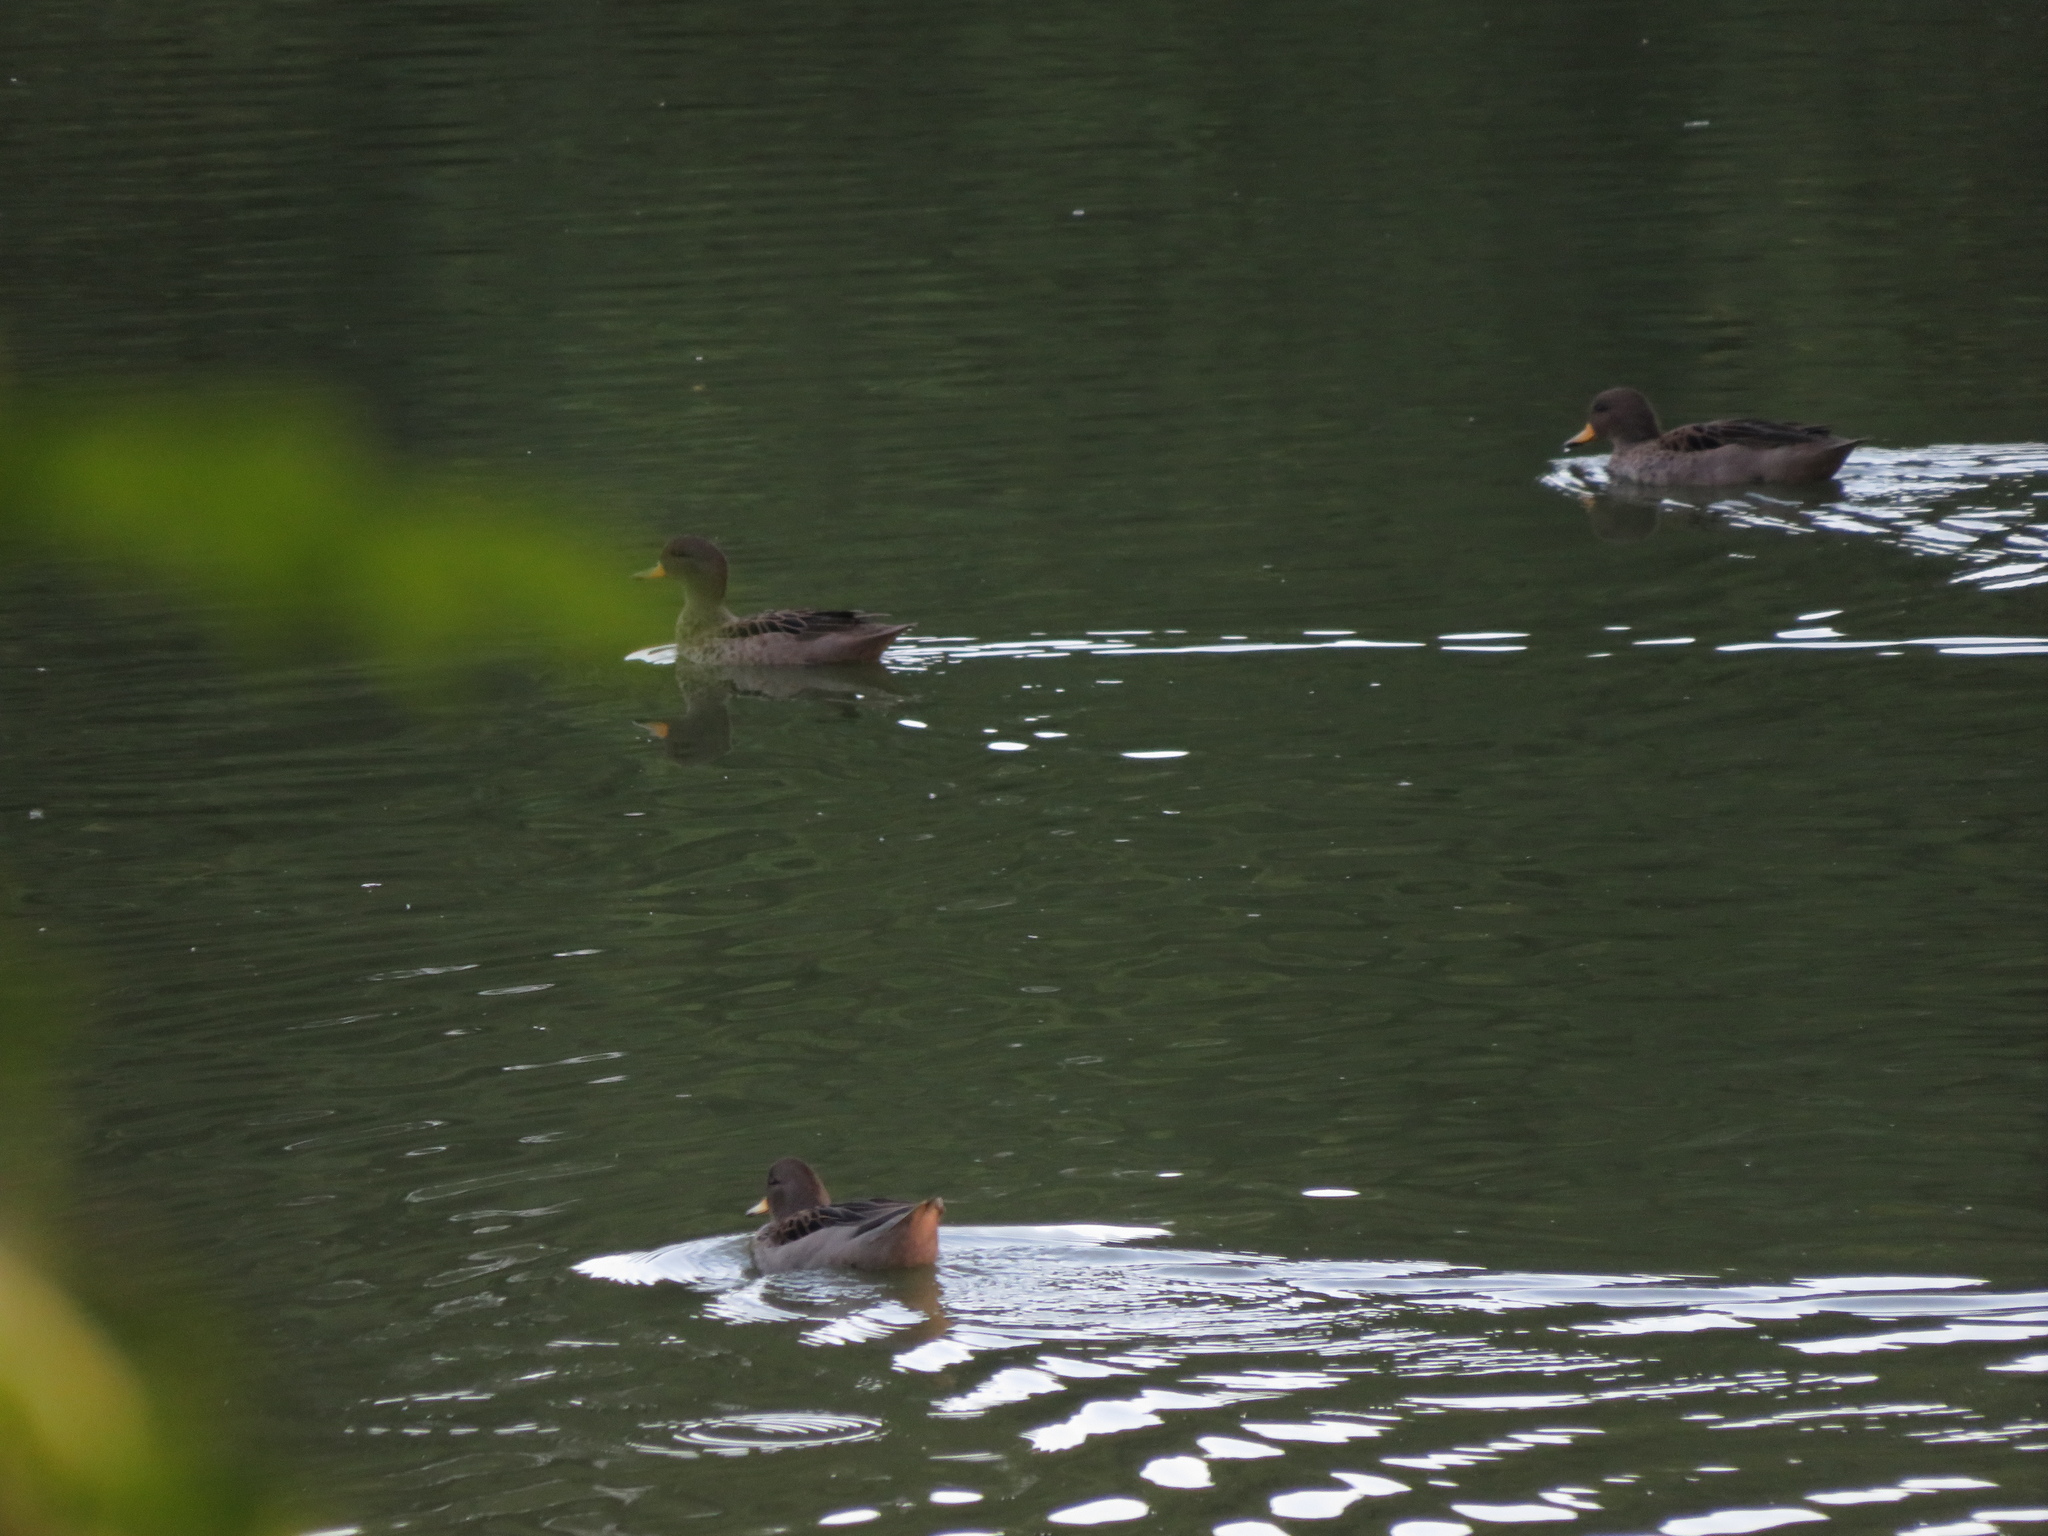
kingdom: Animalia
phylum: Chordata
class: Aves
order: Anseriformes
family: Anatidae
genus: Anas
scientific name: Anas flavirostris
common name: Yellow-billed teal
